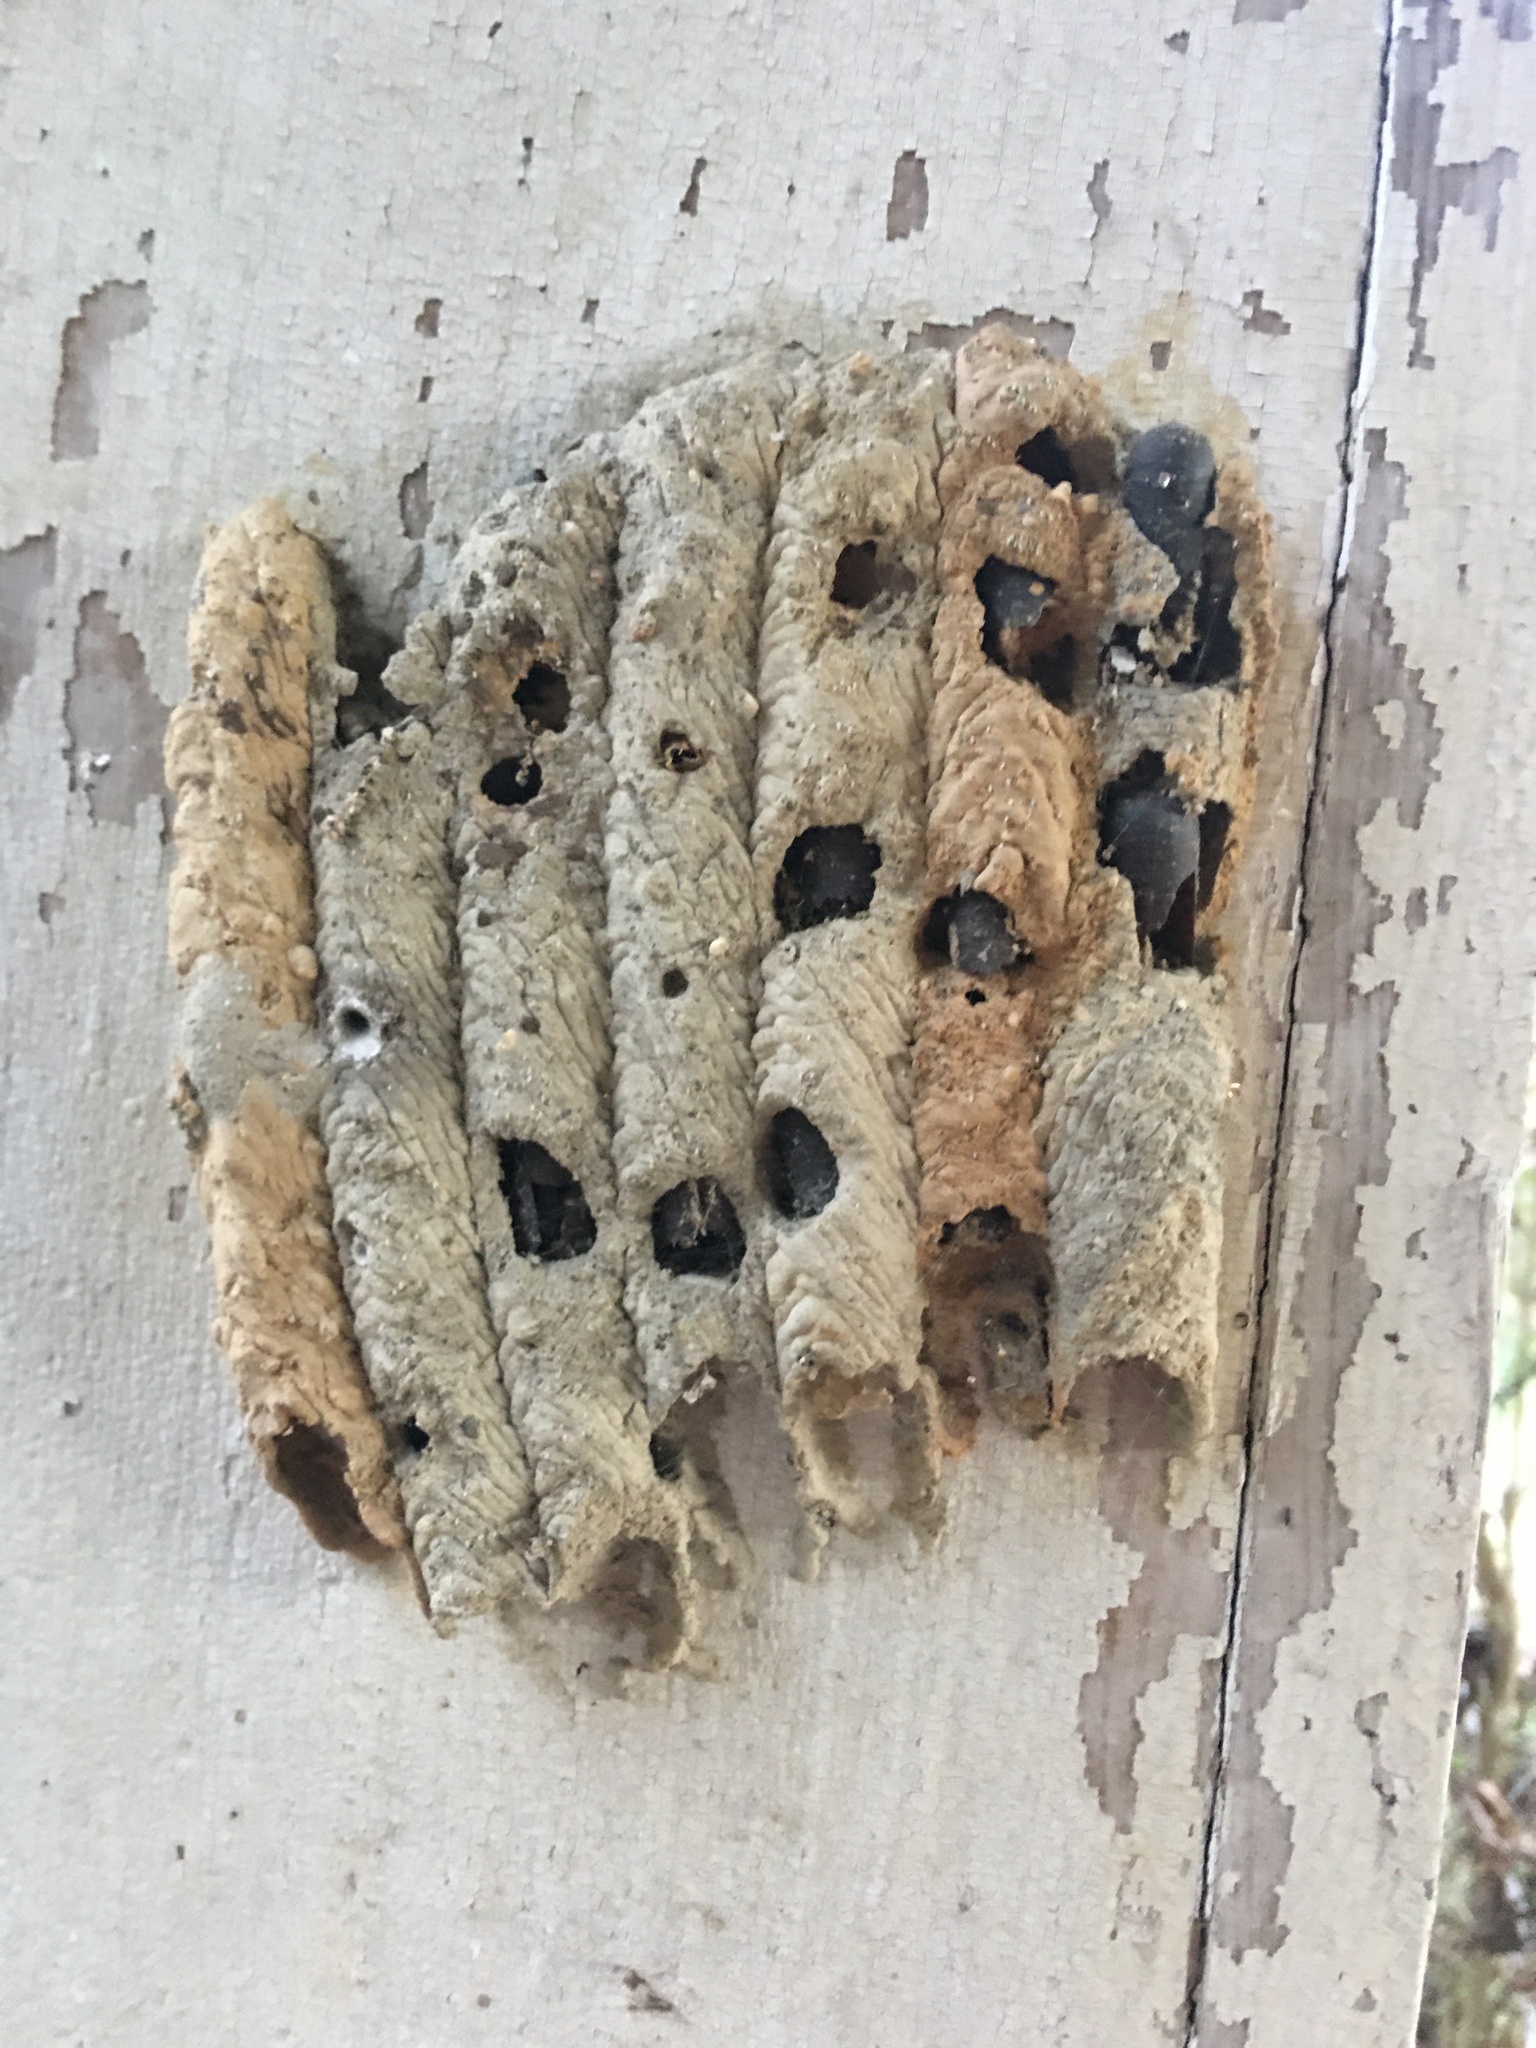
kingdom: Animalia
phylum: Arthropoda
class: Insecta
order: Hymenoptera
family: Crabronidae
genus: Trypoxylon
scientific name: Trypoxylon politum
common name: Organ-pipe mud-dauber wasp
